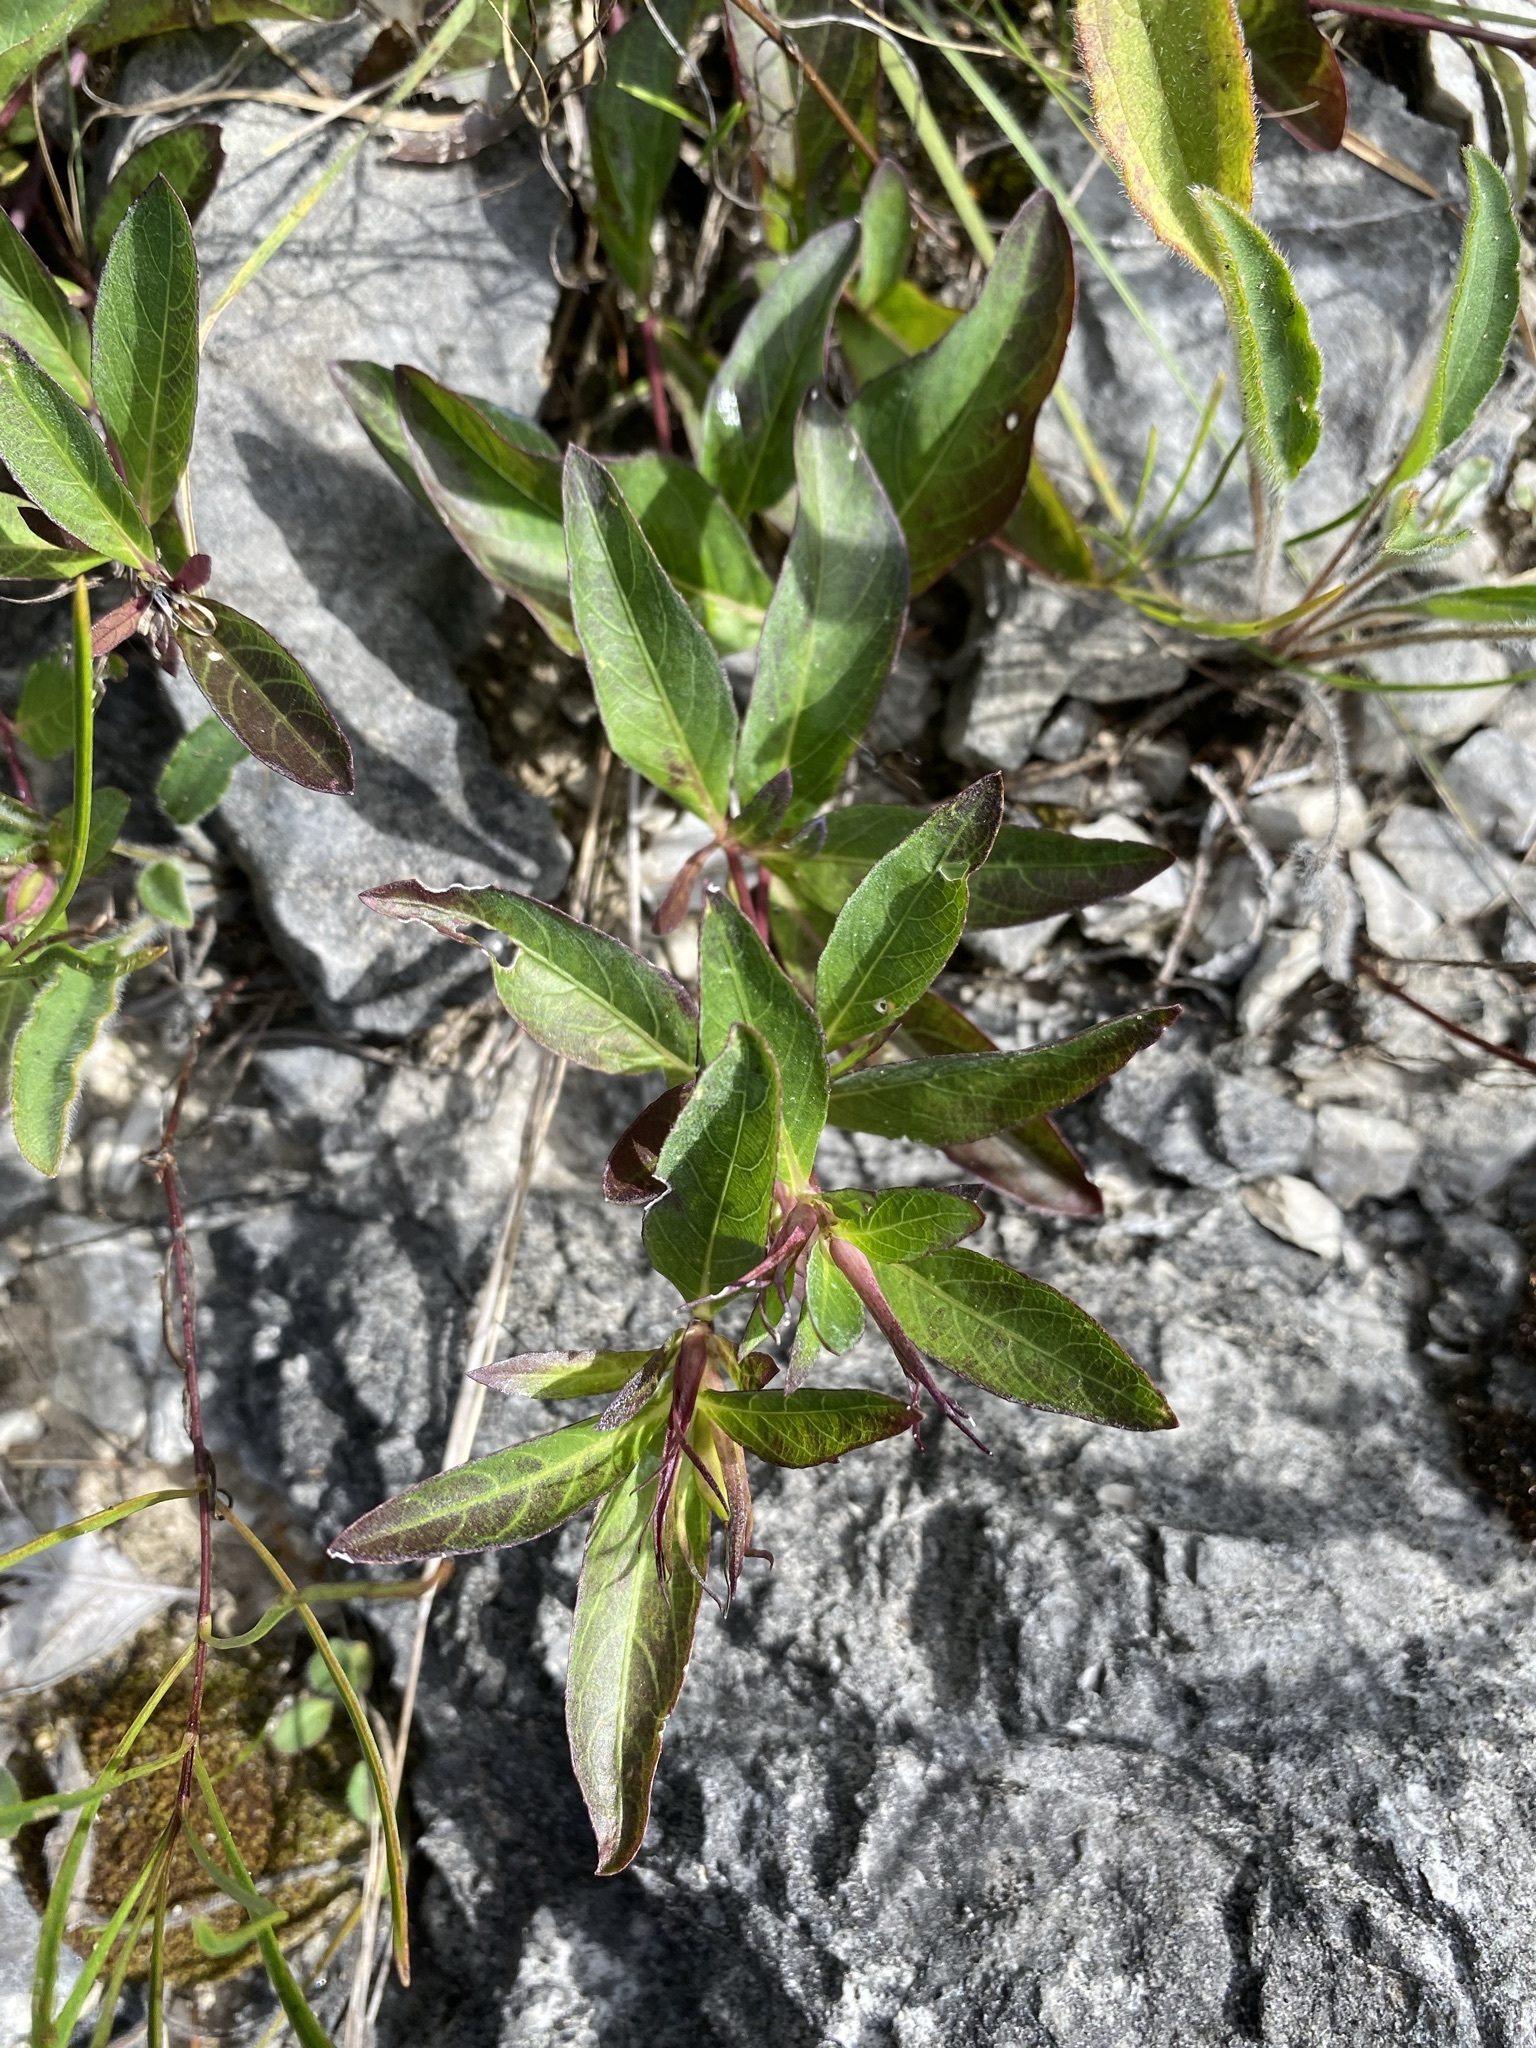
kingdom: Plantae
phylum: Tracheophyta
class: Magnoliopsida
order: Lamiales
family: Acanthaceae
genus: Ruellia
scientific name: Ruellia humilis
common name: Fringe-leaf ruellia
